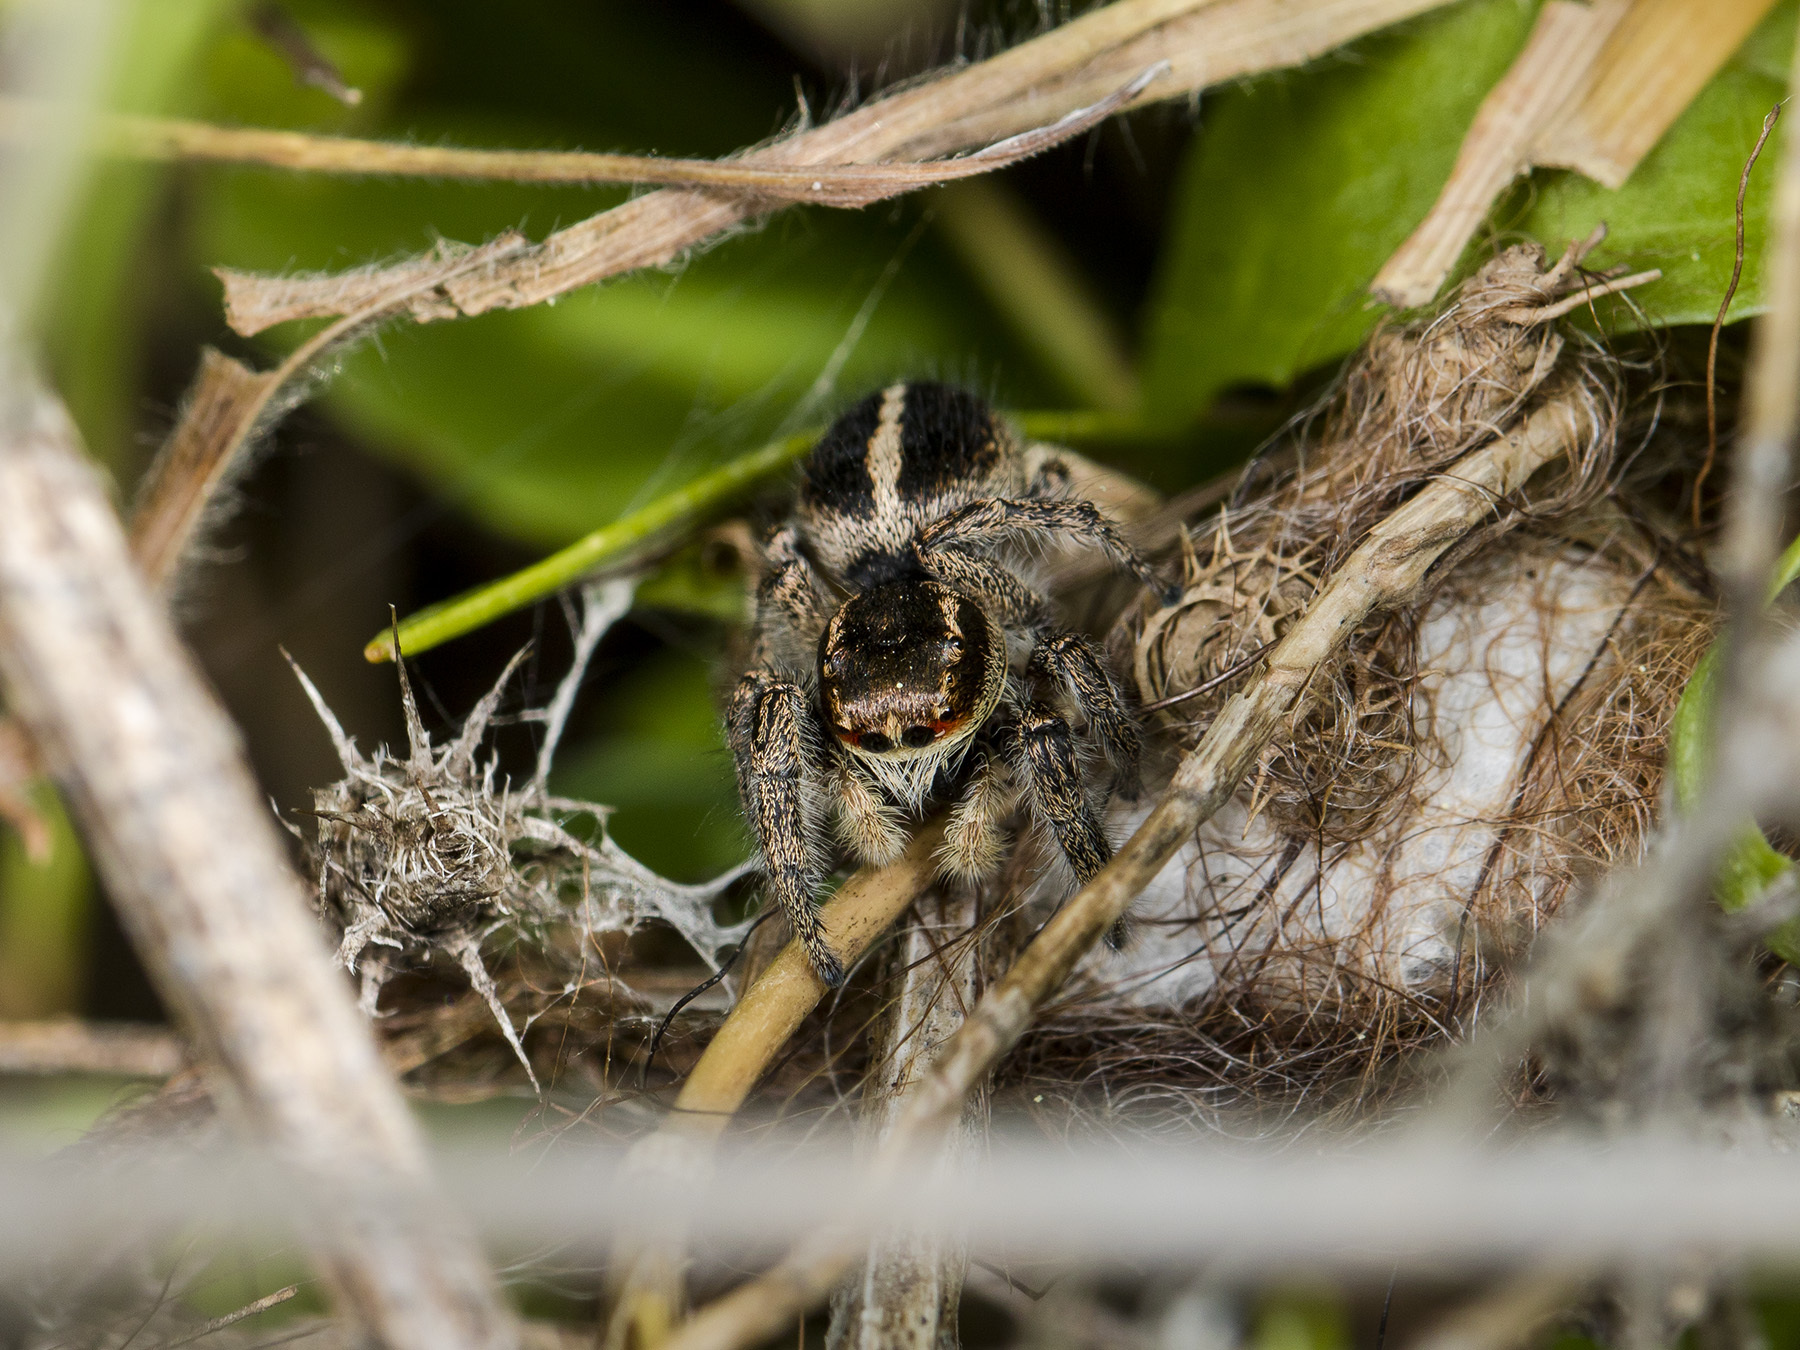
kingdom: Animalia
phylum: Arthropoda
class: Arachnida
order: Araneae
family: Salticidae
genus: Pellenes
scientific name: Pellenes seriatus
